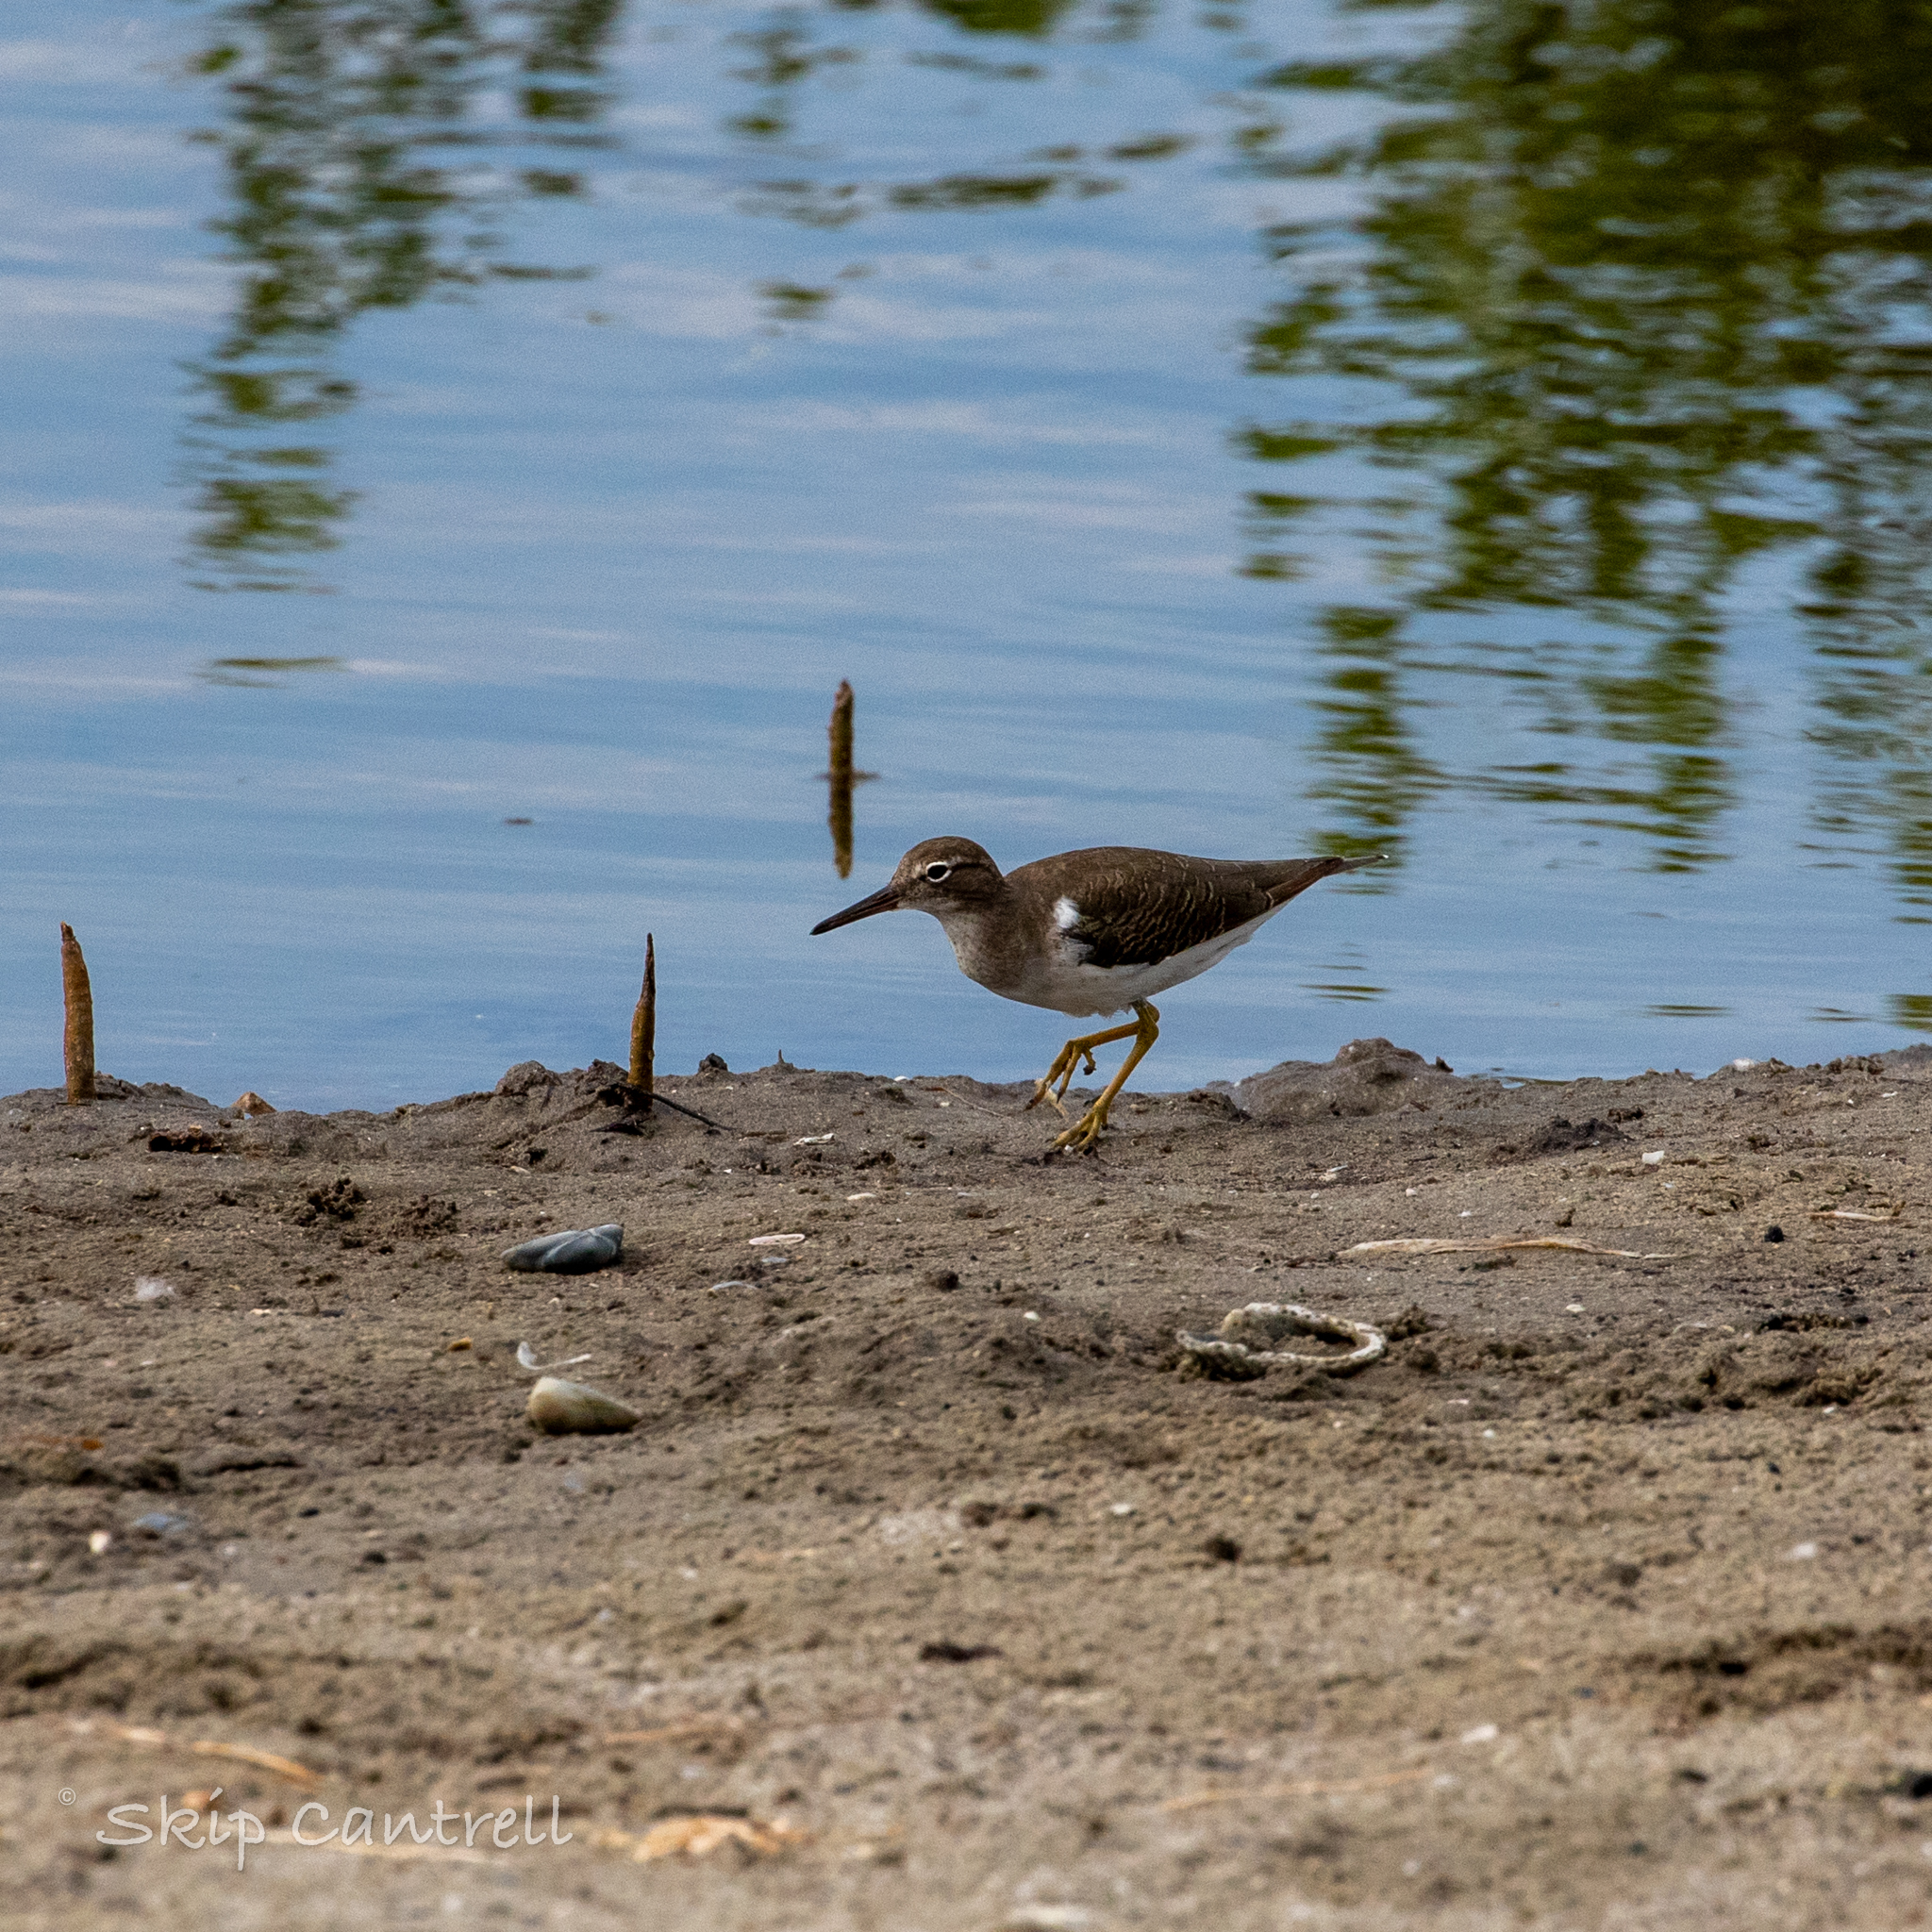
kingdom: Animalia
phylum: Chordata
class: Aves
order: Charadriiformes
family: Scolopacidae
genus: Actitis
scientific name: Actitis macularius
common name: Spotted sandpiper
